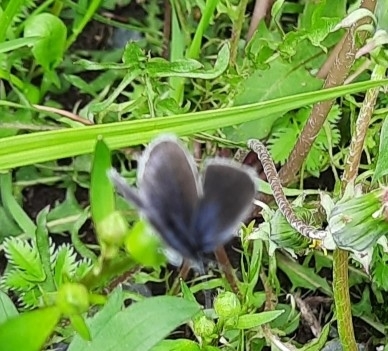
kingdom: Animalia
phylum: Arthropoda
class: Insecta
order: Lepidoptera
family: Lycaenidae
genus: Elkalyce
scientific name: Elkalyce argiades
